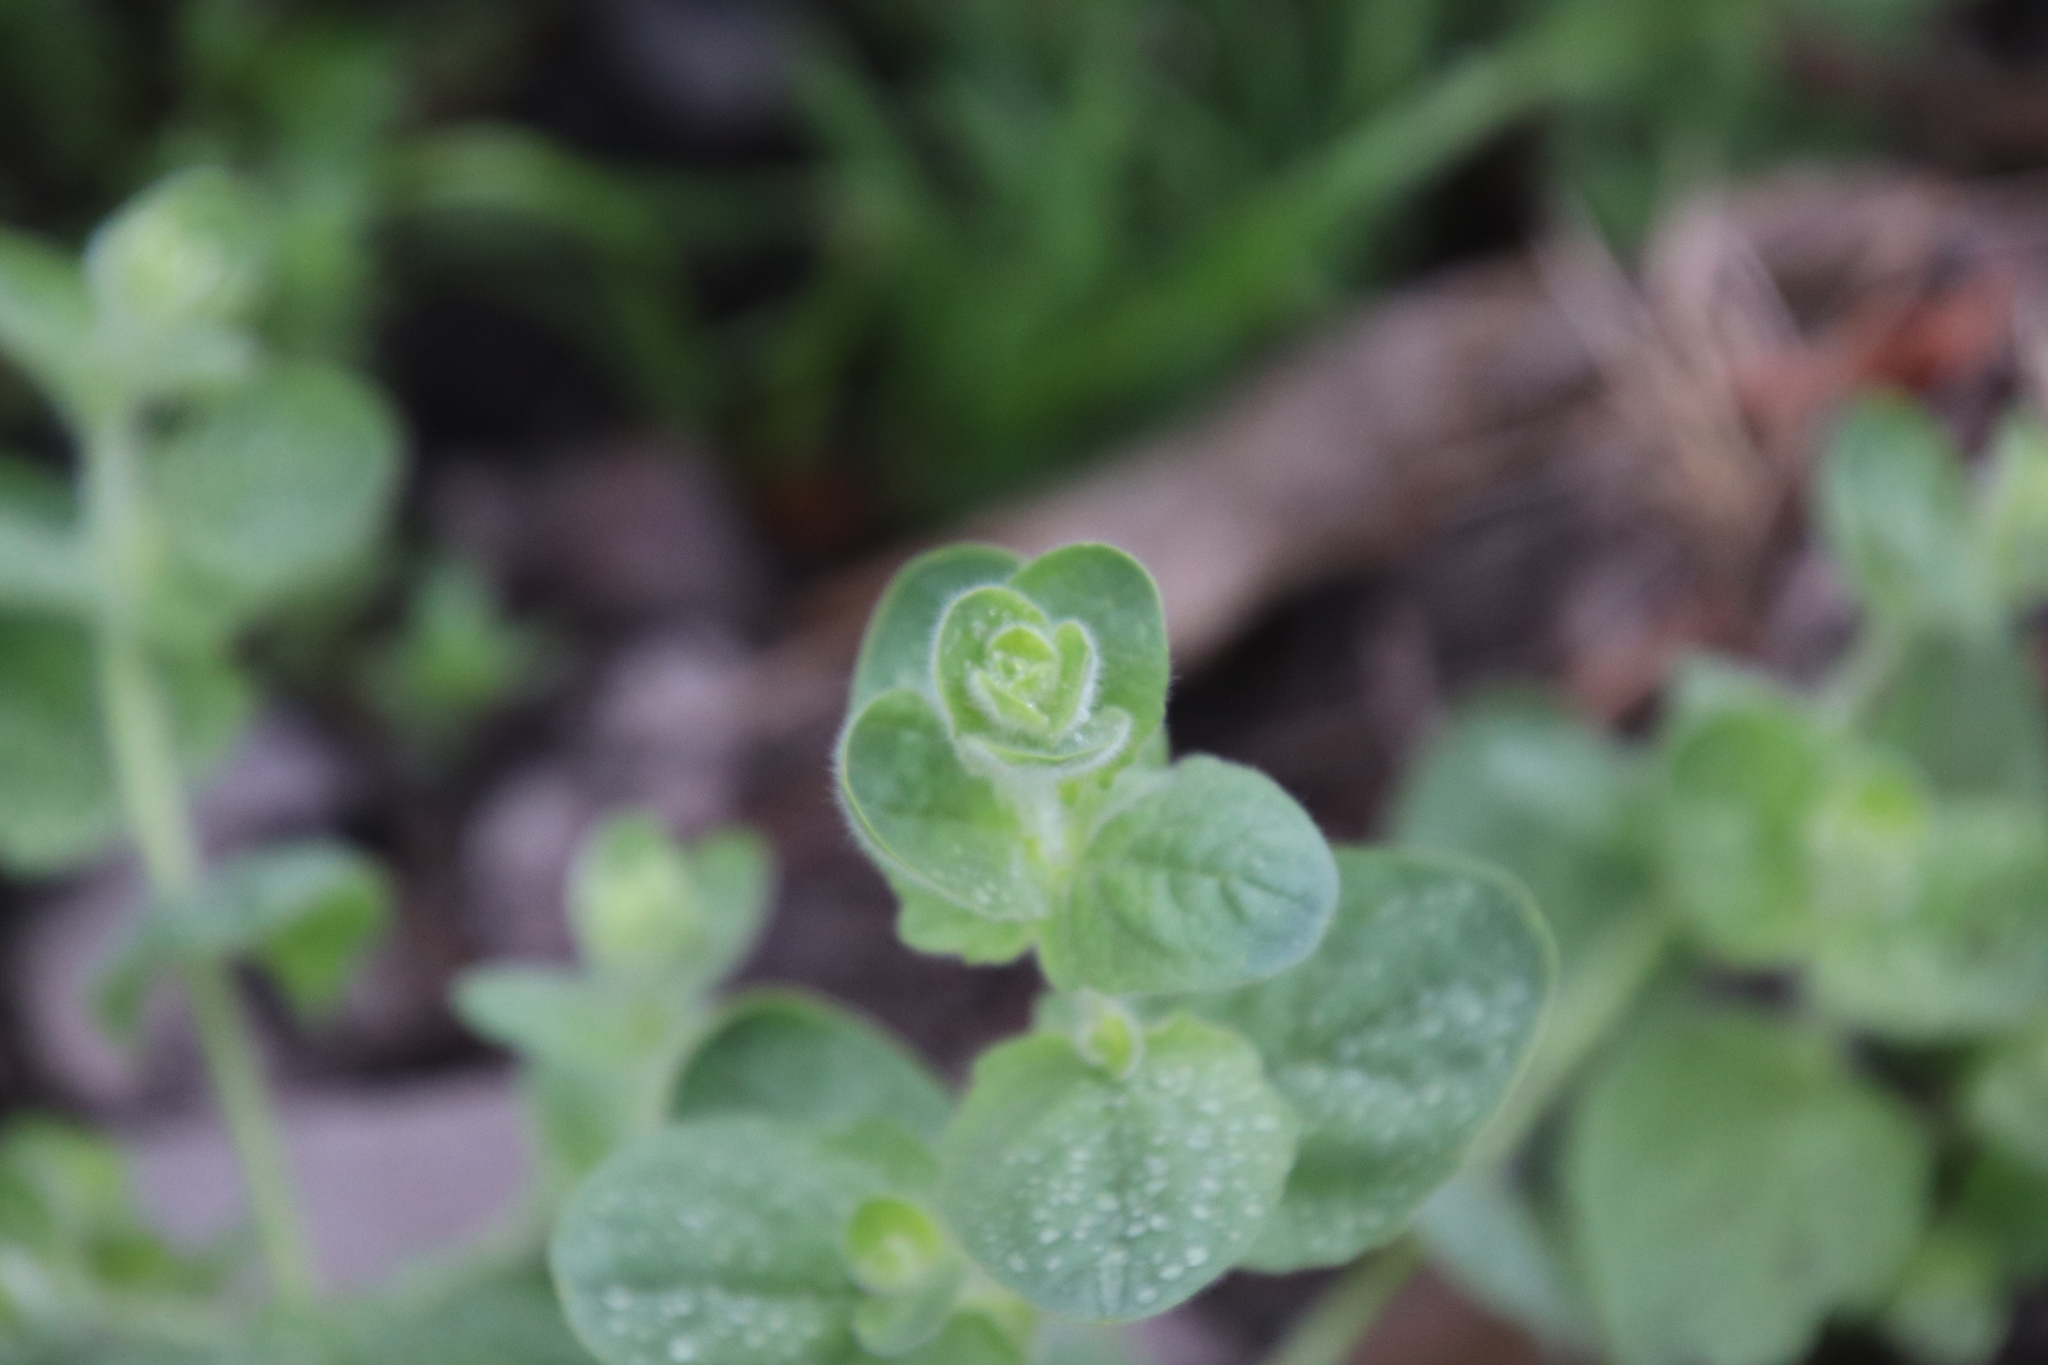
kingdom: Plantae
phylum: Tracheophyta
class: Magnoliopsida
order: Lamiales
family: Plantaginaceae
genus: Kickxia
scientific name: Kickxia elatine
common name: Sharp-leaved fluellen
